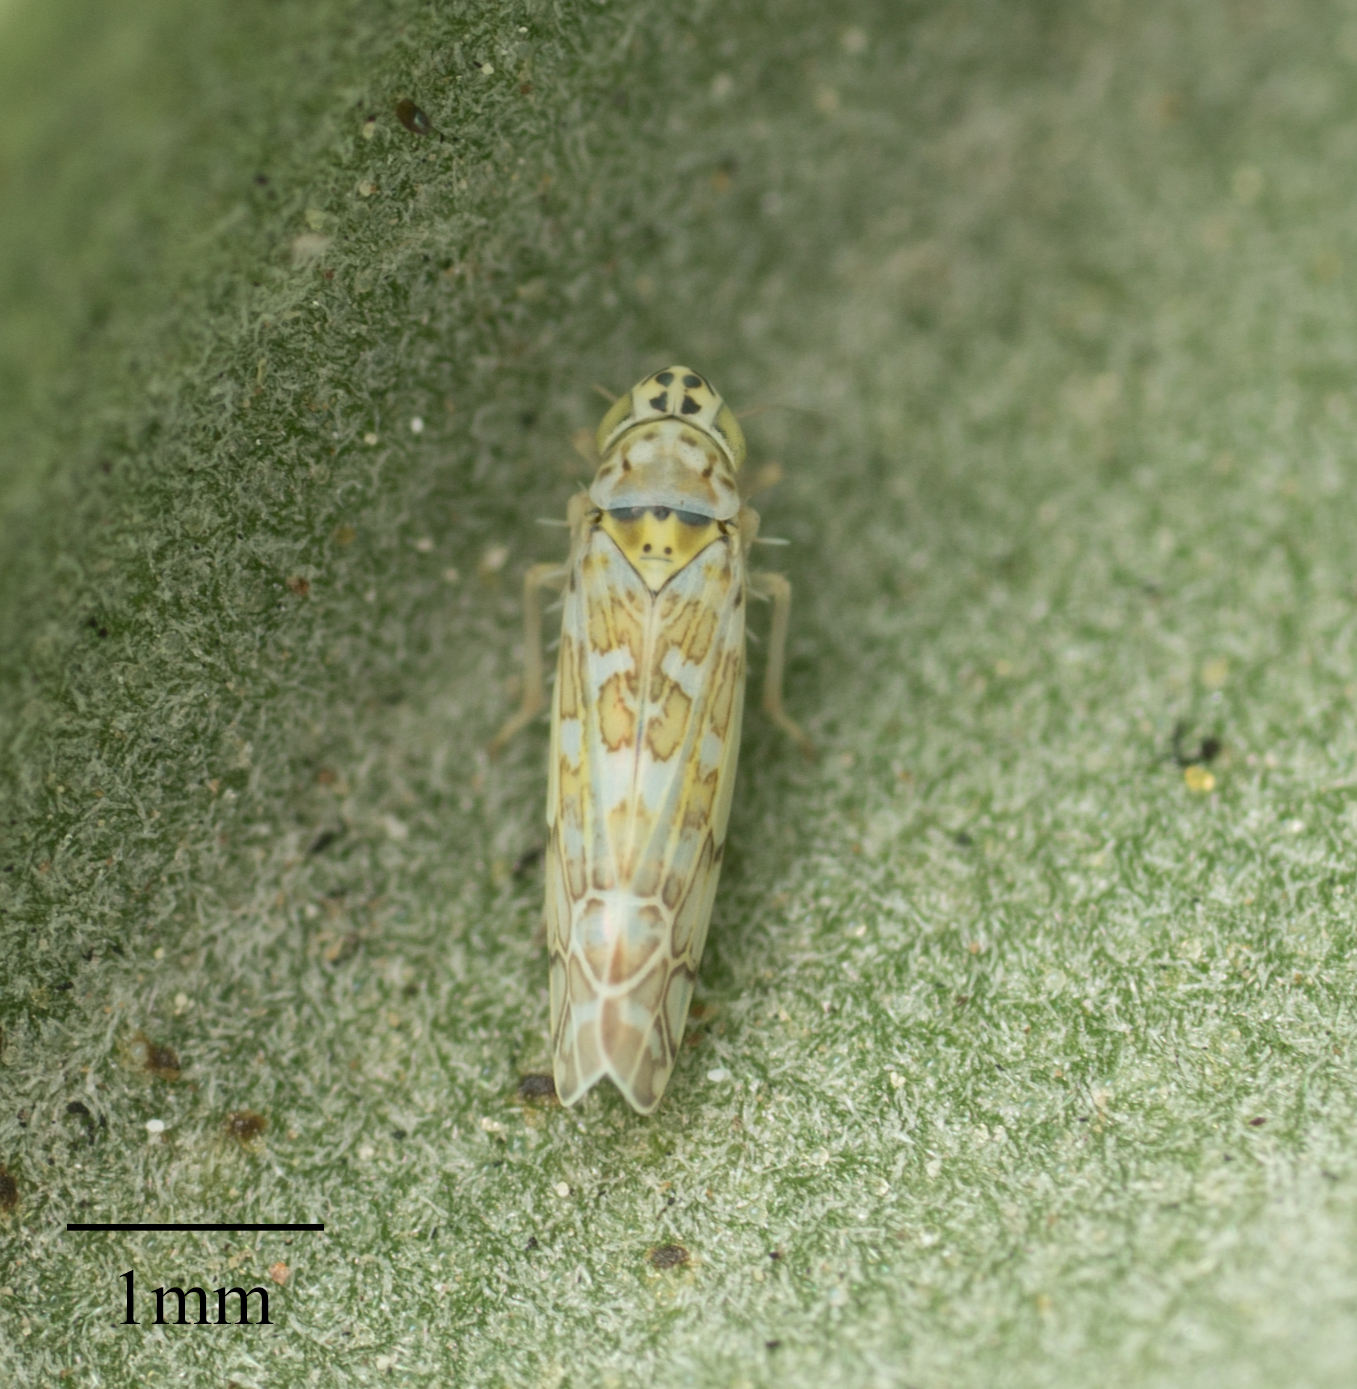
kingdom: Animalia
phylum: Arthropoda
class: Insecta
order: Hemiptera
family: Cicadellidae
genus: Eupteryx
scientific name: Eupteryx decemnotata
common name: Ligurian leafhopper
